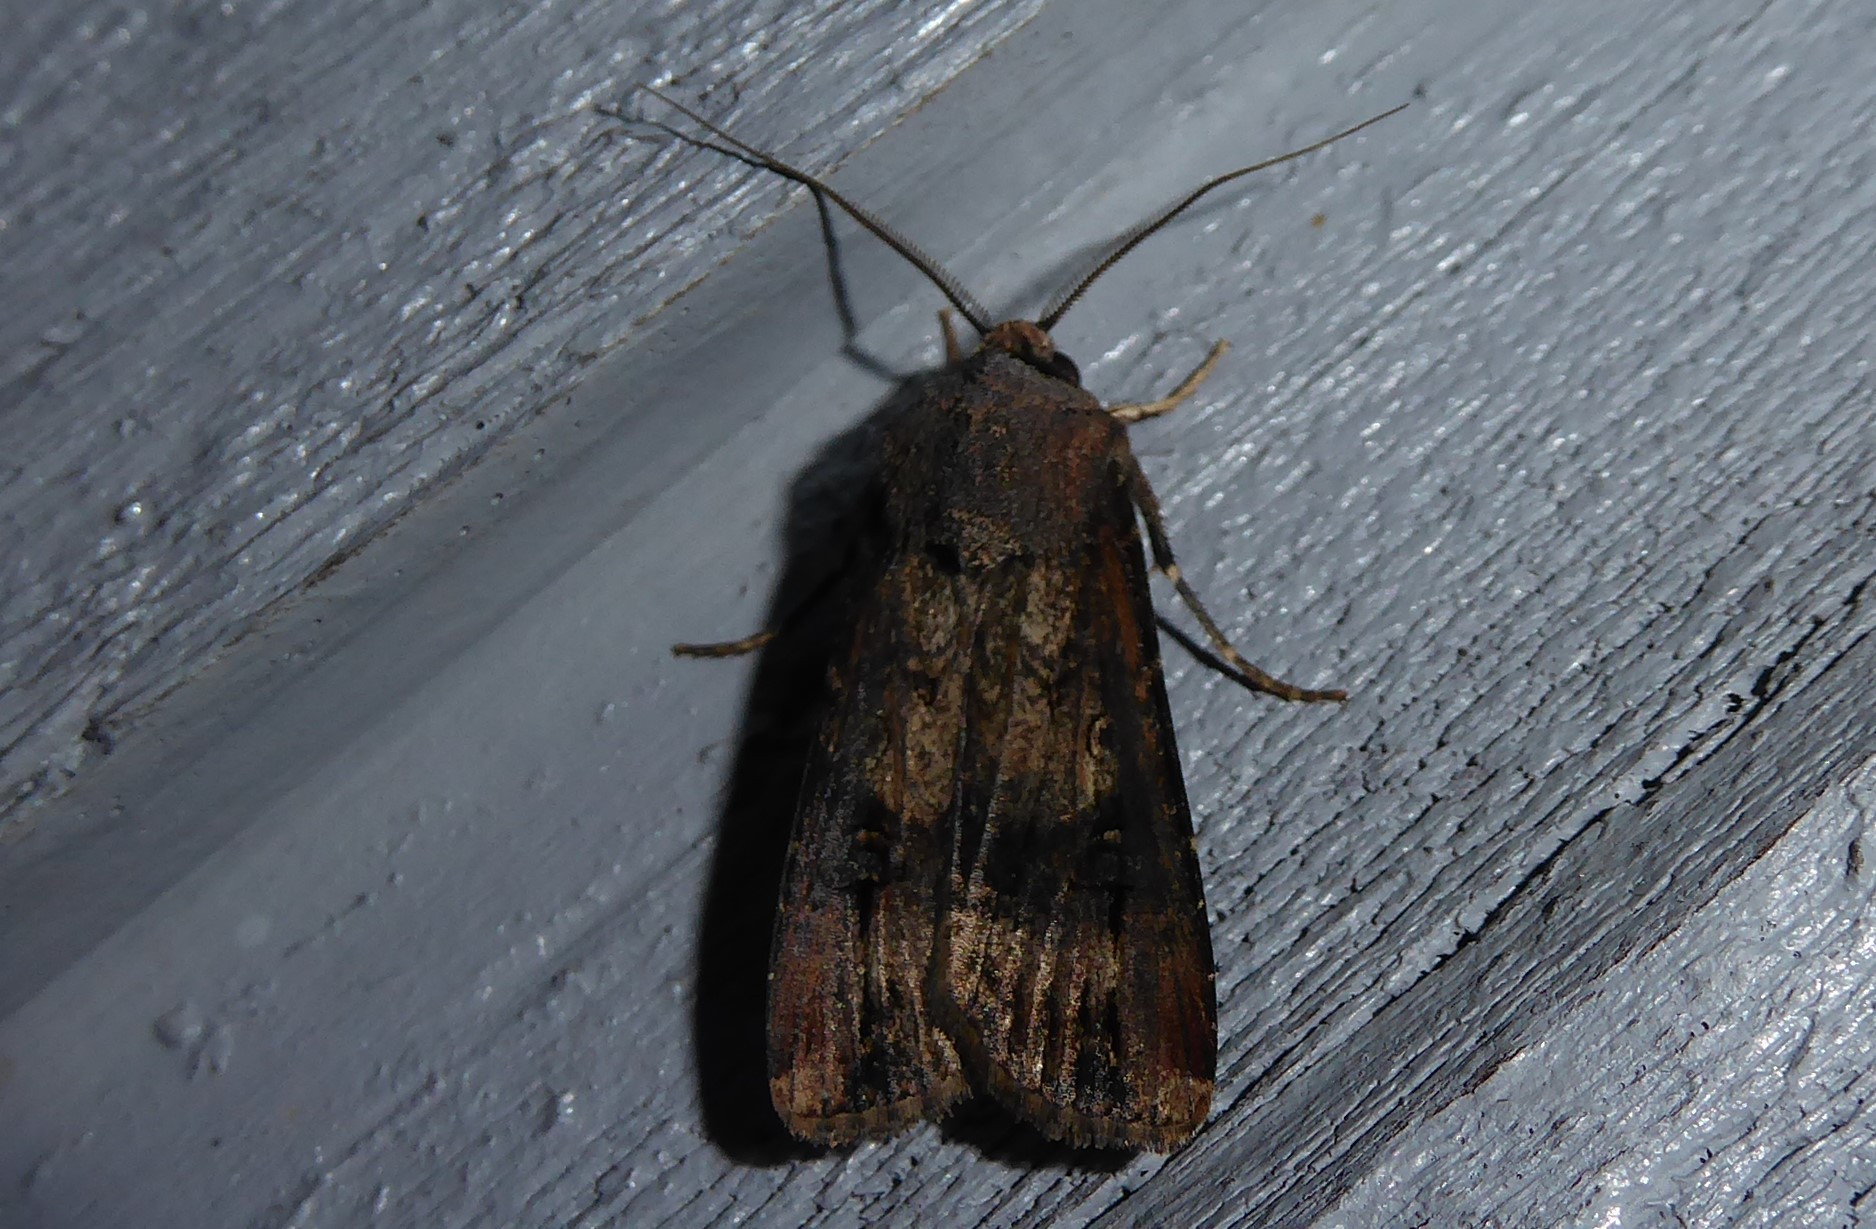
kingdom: Animalia
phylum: Arthropoda
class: Insecta
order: Lepidoptera
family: Noctuidae
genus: Agrotis
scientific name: Agrotis ipsilon
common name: Dark sword-grass
